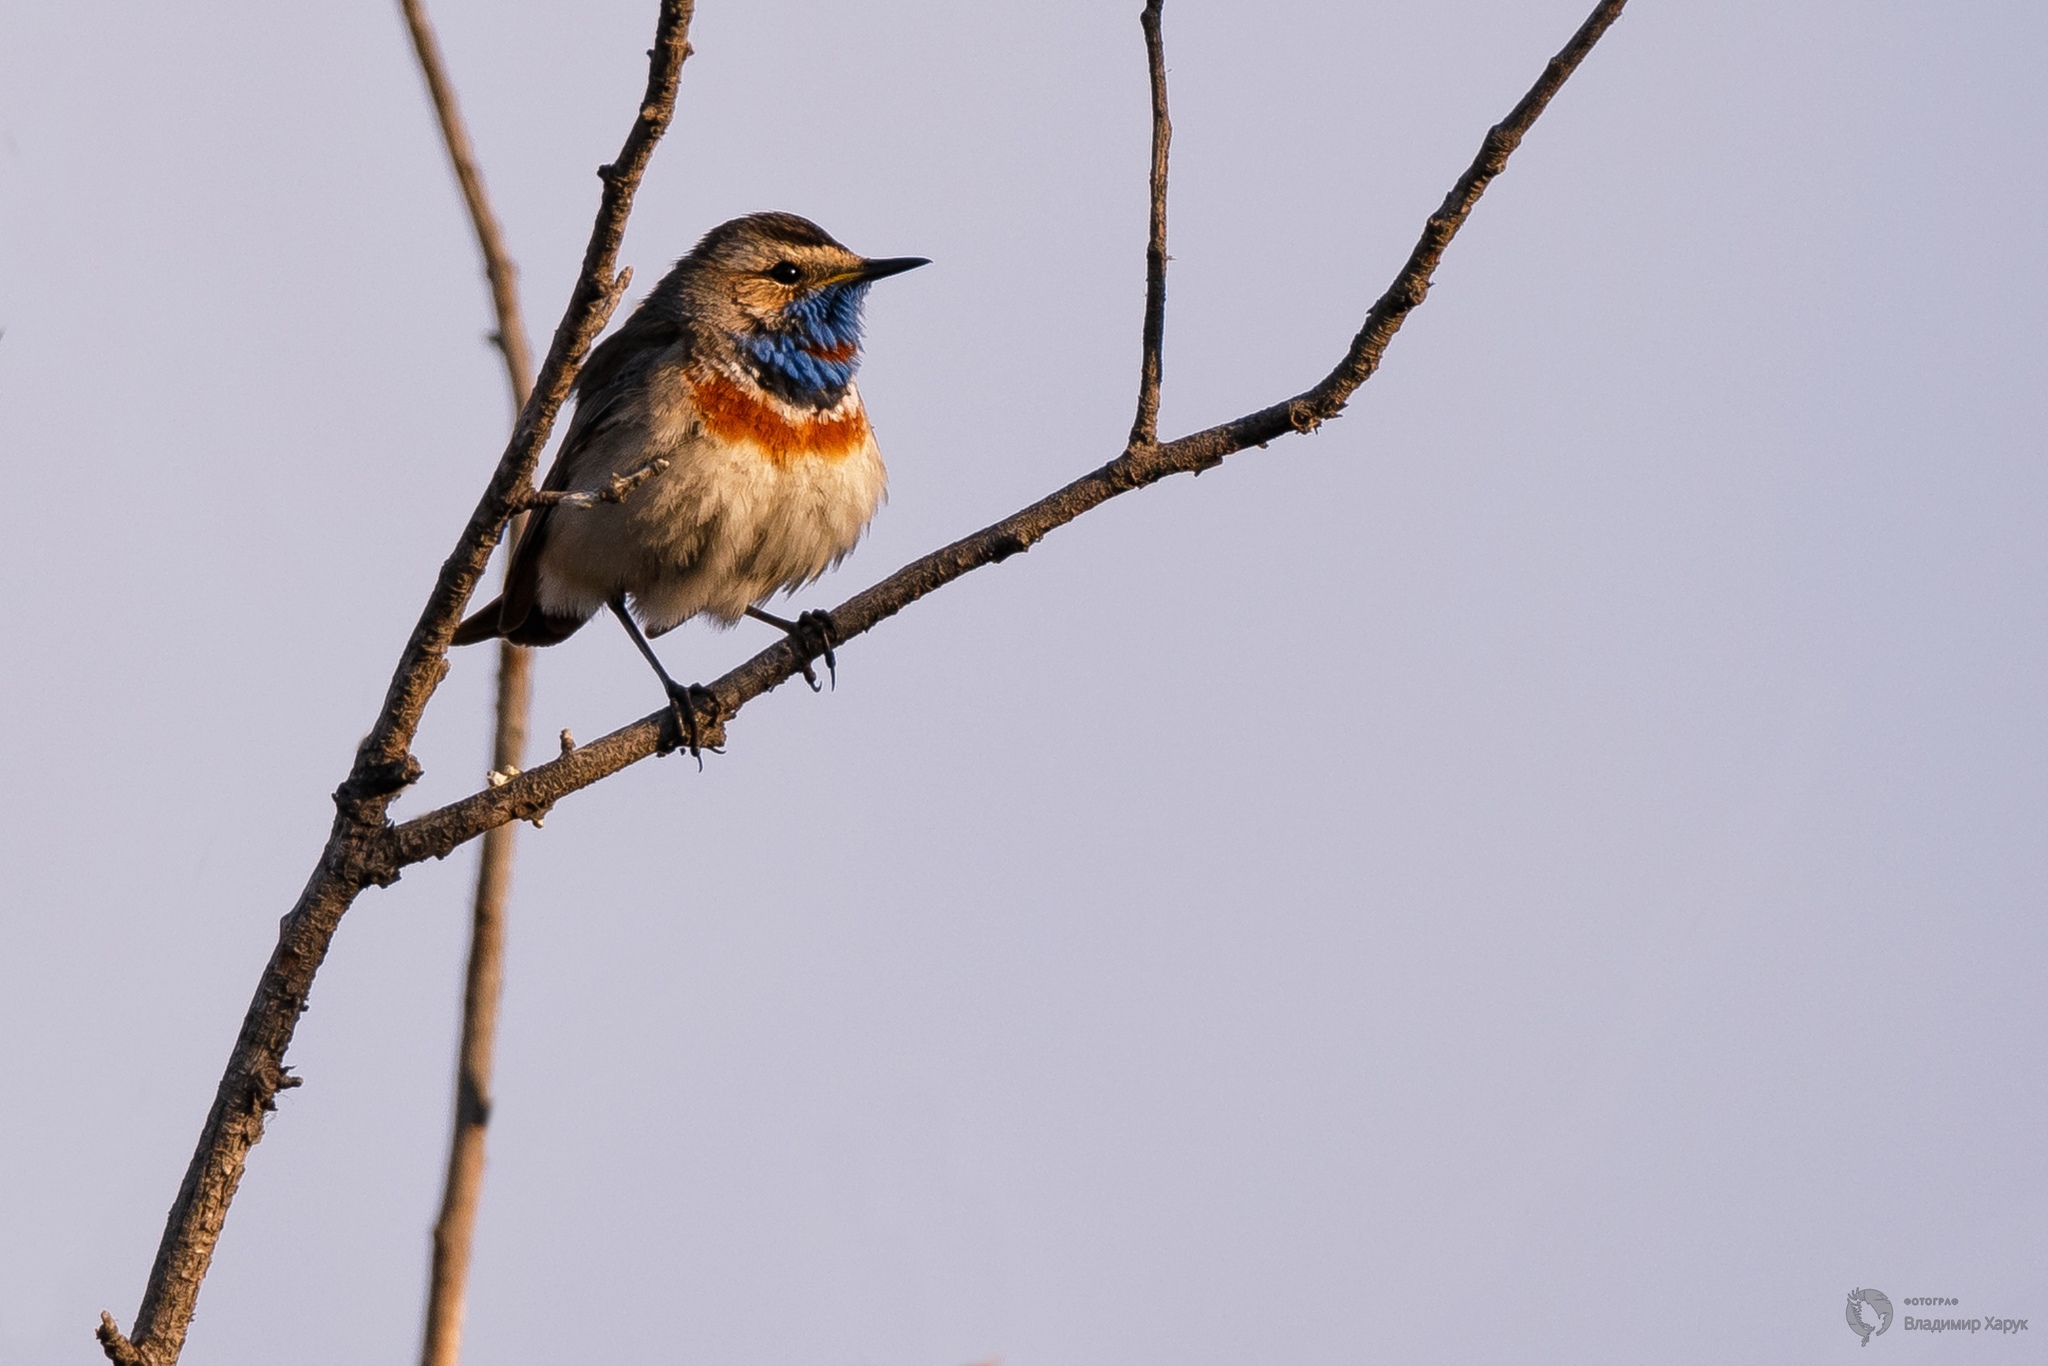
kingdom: Animalia
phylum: Chordata
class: Aves
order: Passeriformes
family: Muscicapidae
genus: Luscinia
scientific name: Luscinia svecica
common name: Bluethroat
